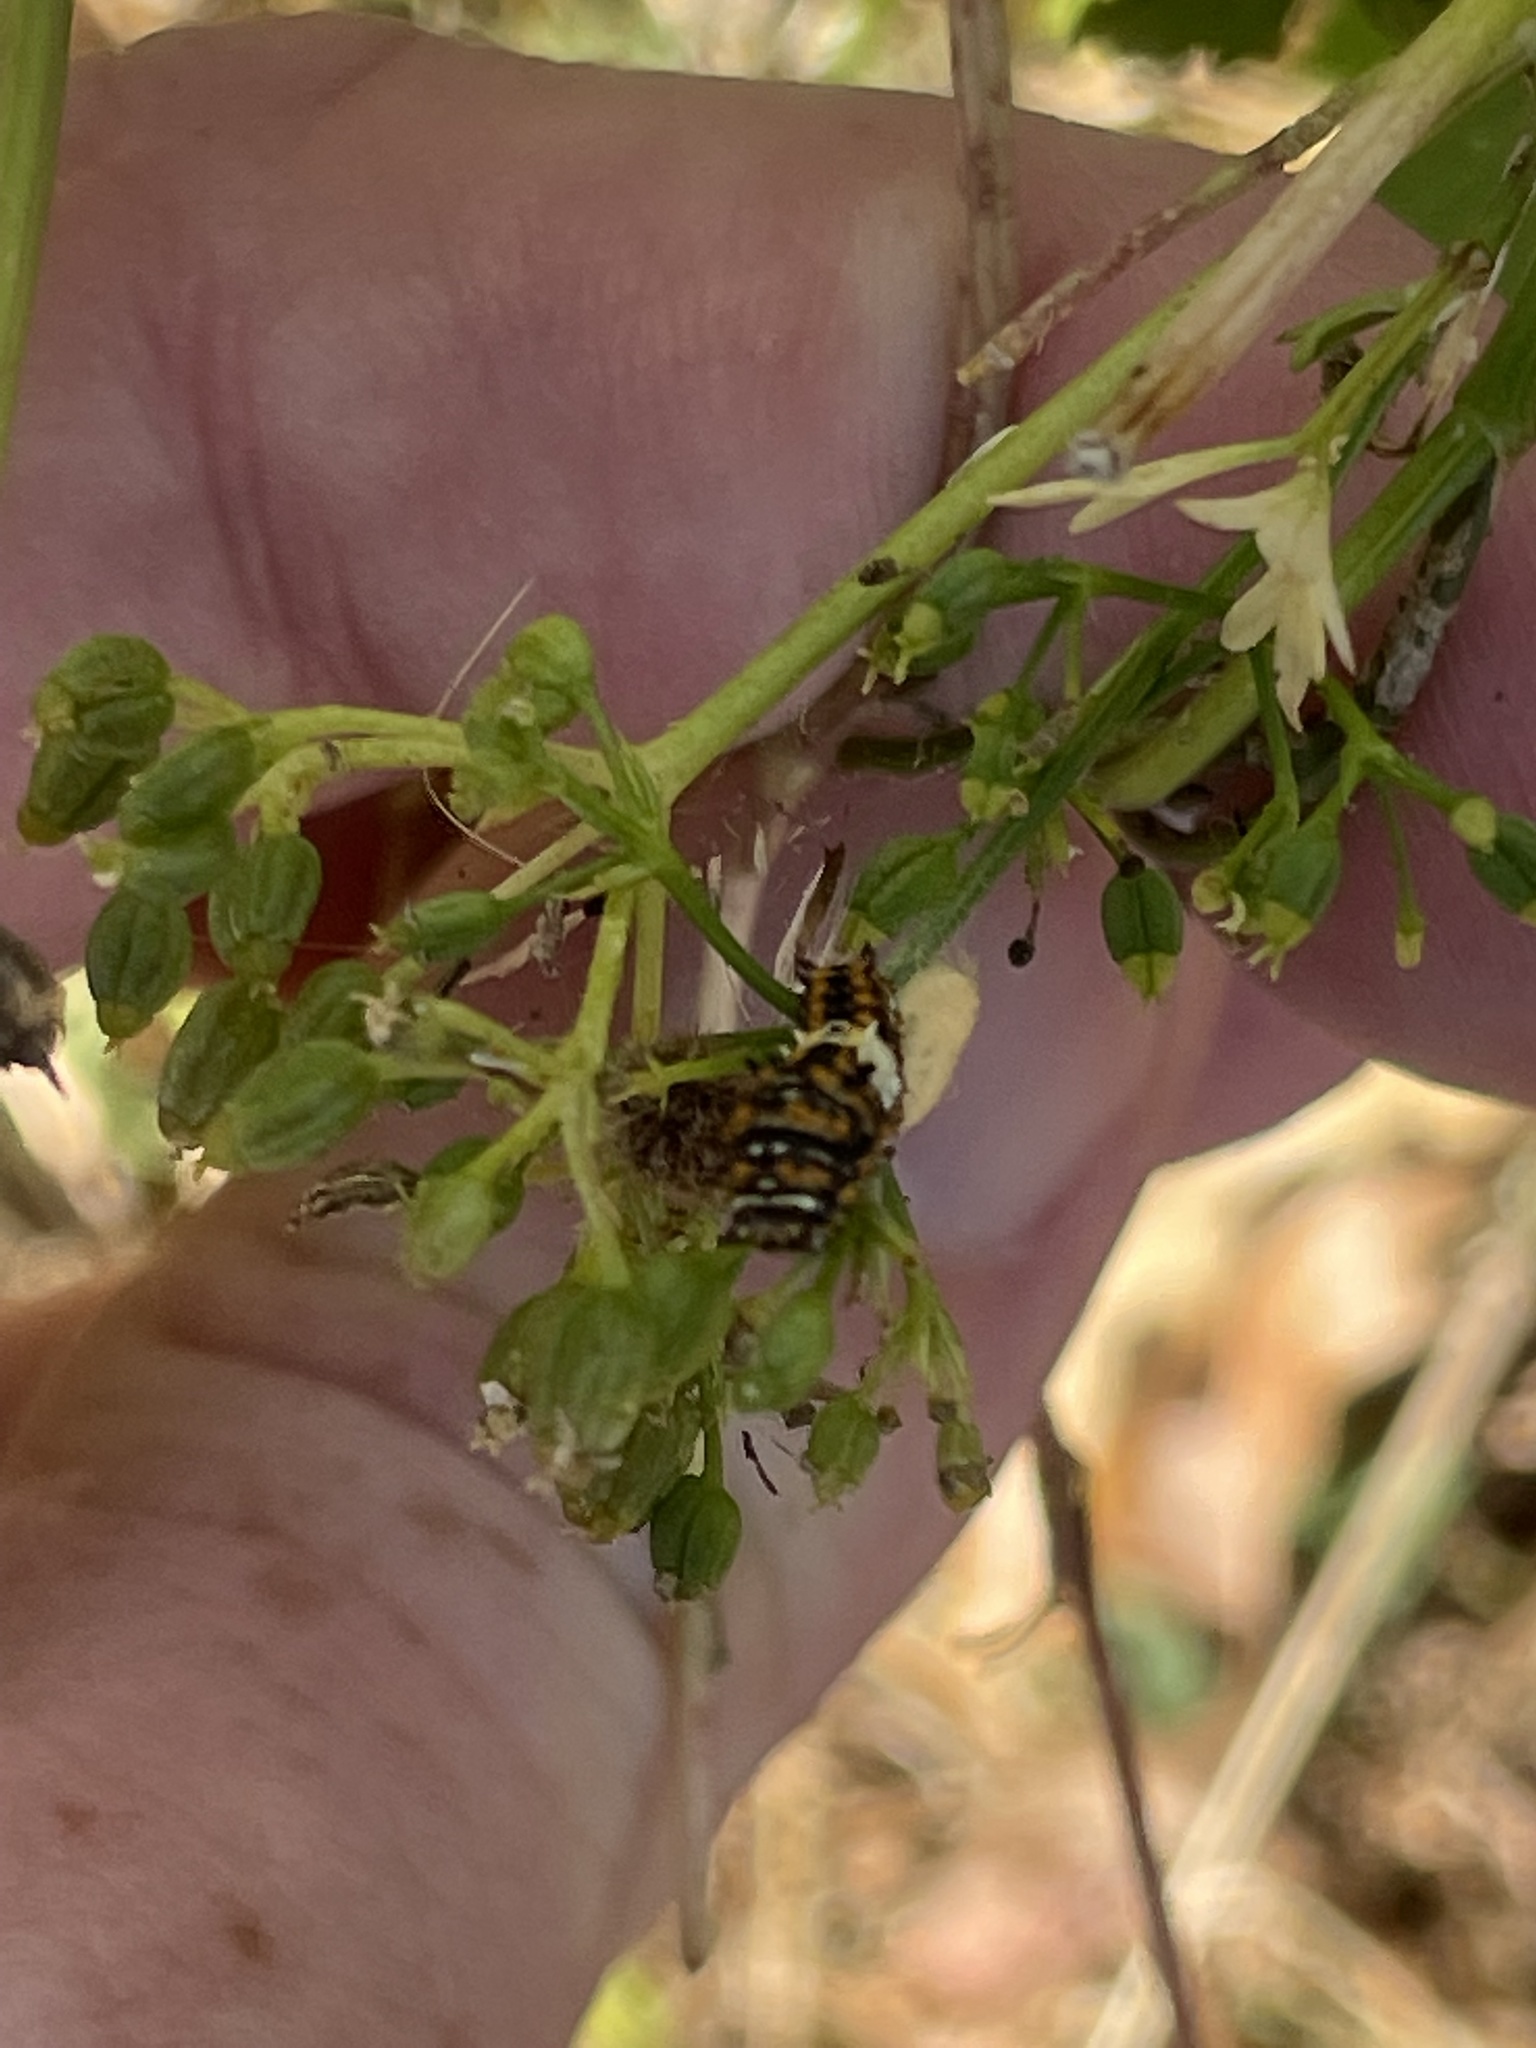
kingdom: Animalia
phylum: Arthropoda
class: Insecta
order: Lepidoptera
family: Papilionidae
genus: Papilio
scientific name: Papilio polyxenes
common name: Black swallowtail
